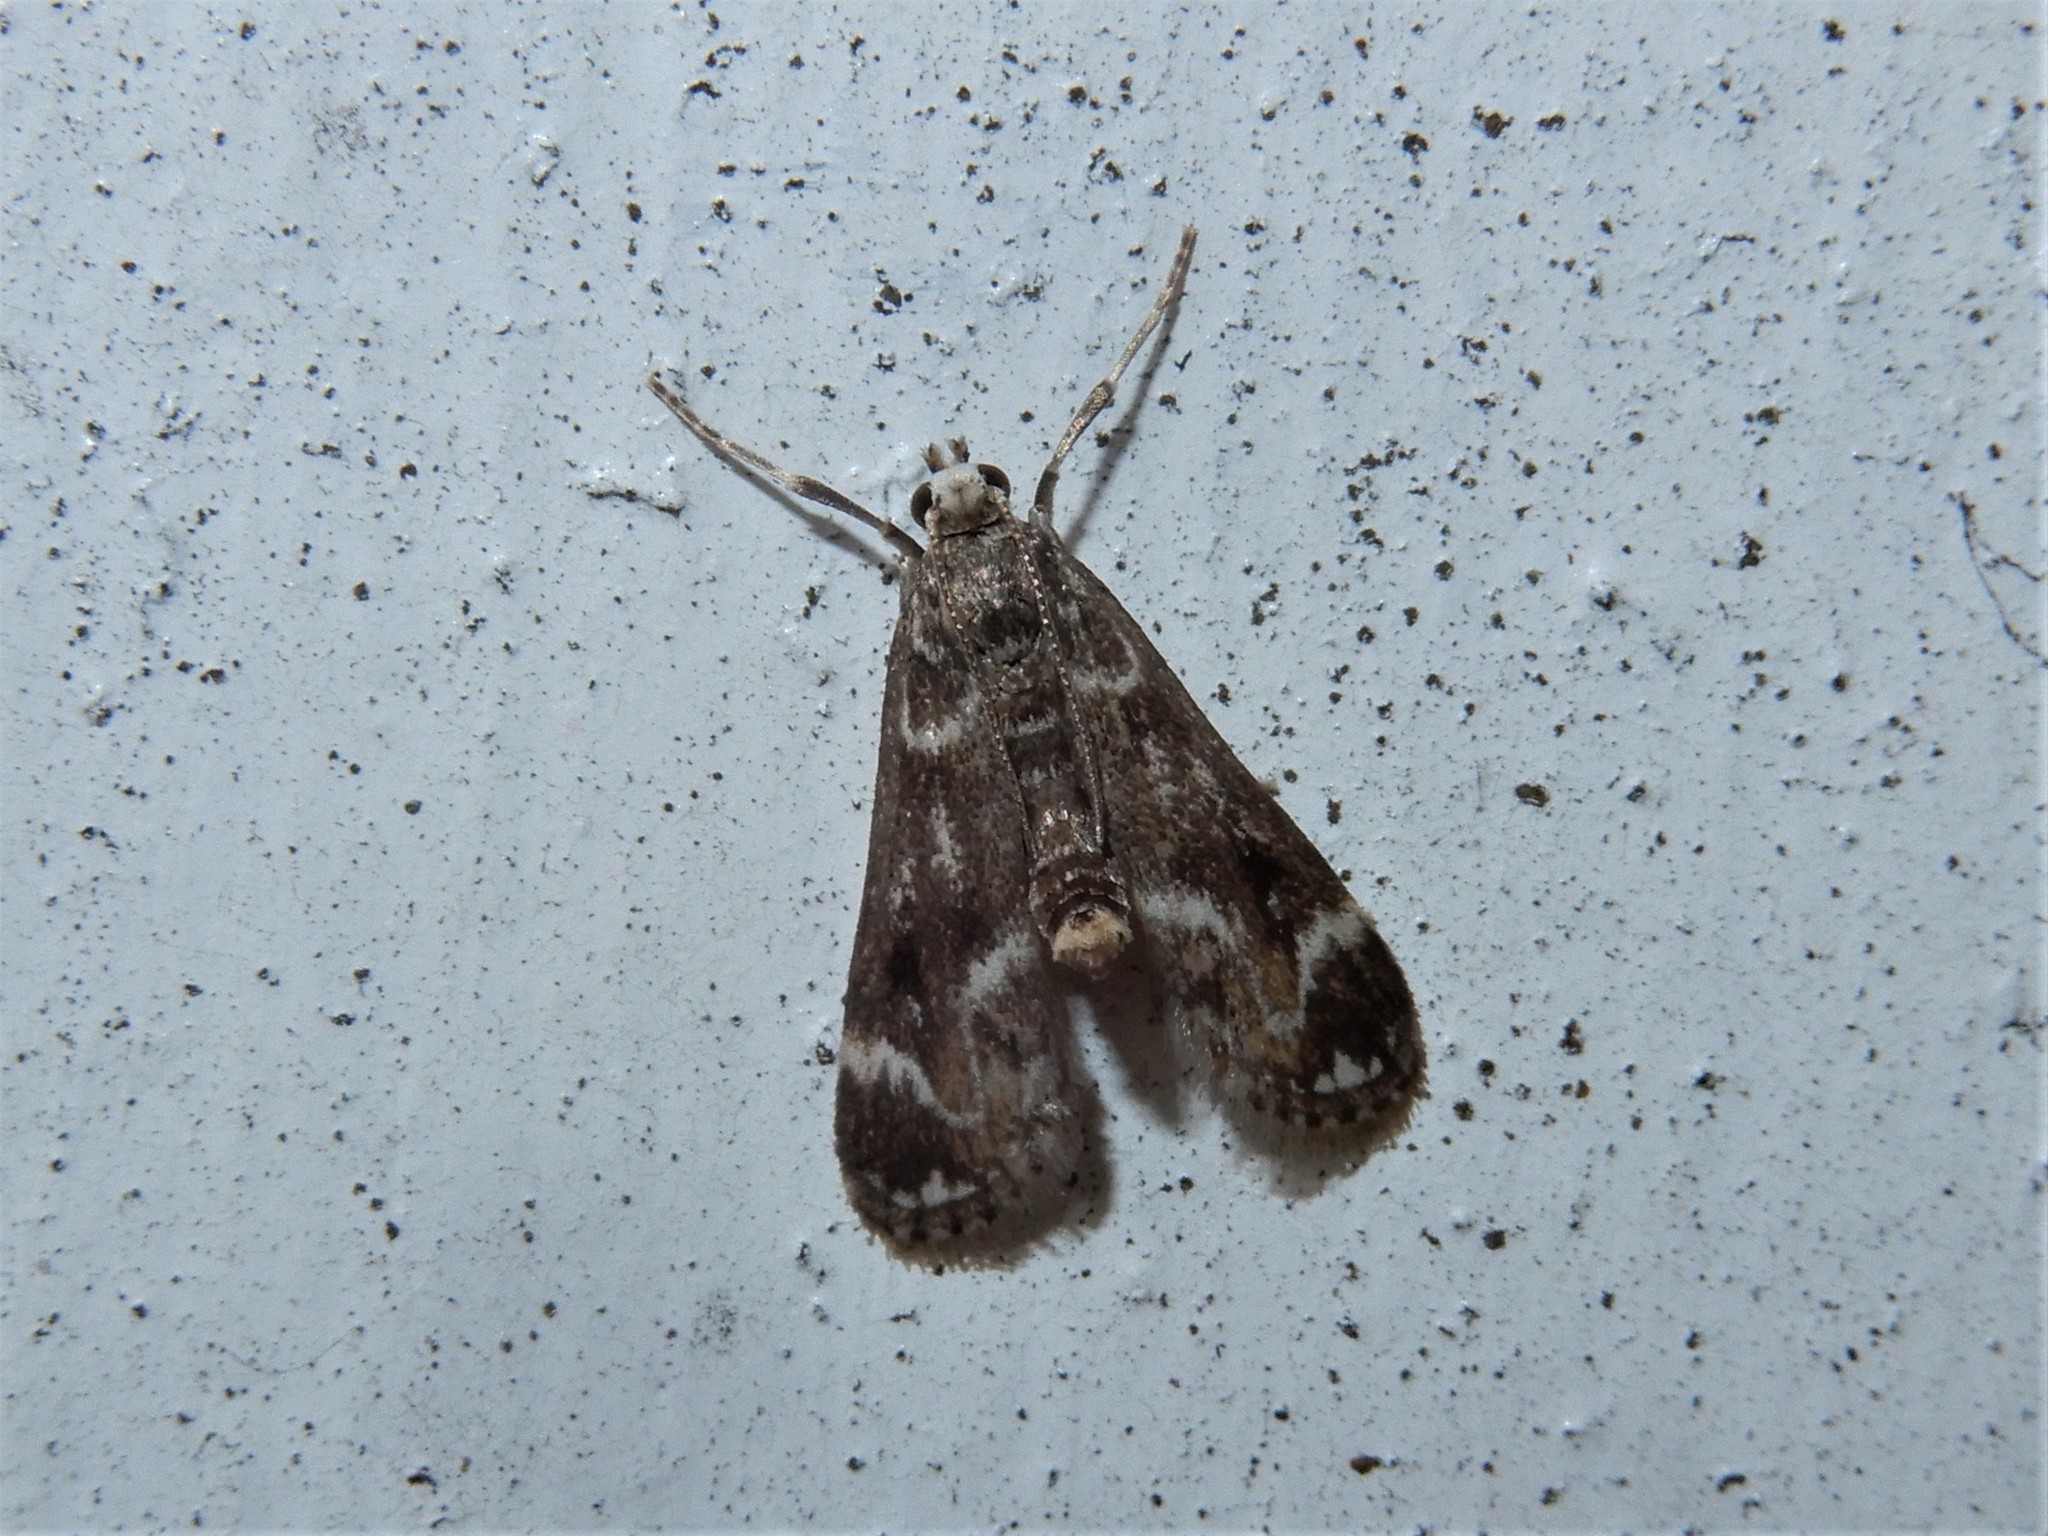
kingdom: Animalia
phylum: Arthropoda
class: Insecta
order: Lepidoptera
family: Crambidae
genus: Hygraula
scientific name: Hygraula nitens
